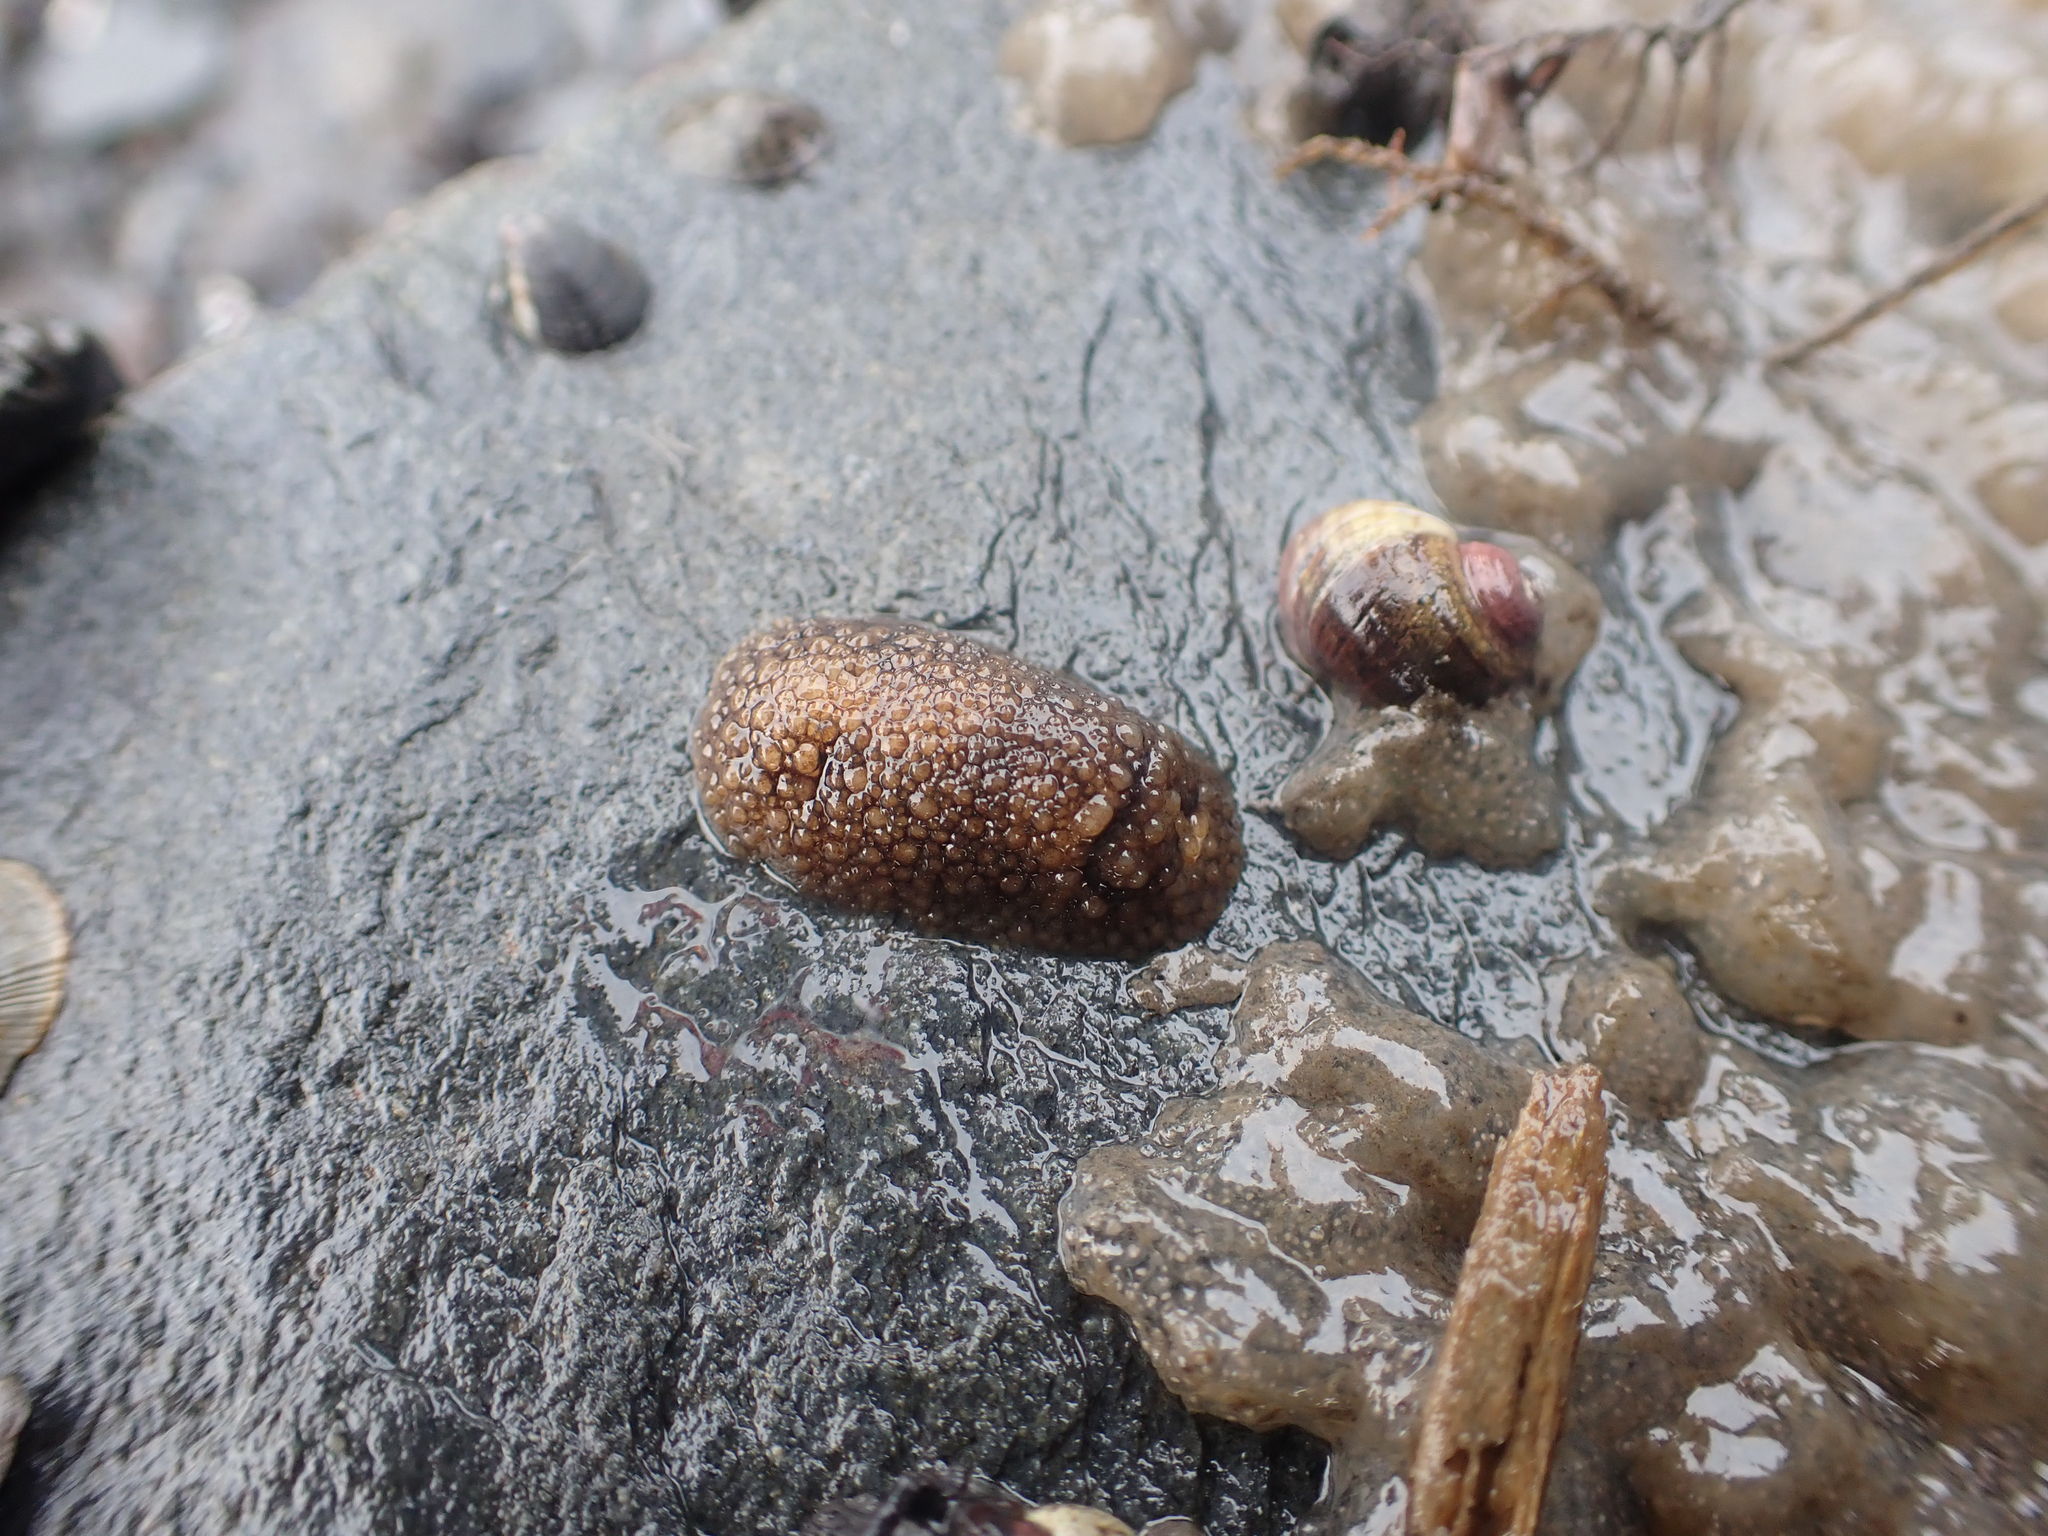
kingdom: Animalia
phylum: Mollusca
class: Gastropoda
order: Nudibranchia
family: Onchidorididae
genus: Onchidoris
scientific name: Onchidoris bilamellata
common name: Barnacle-eating onchidoris
